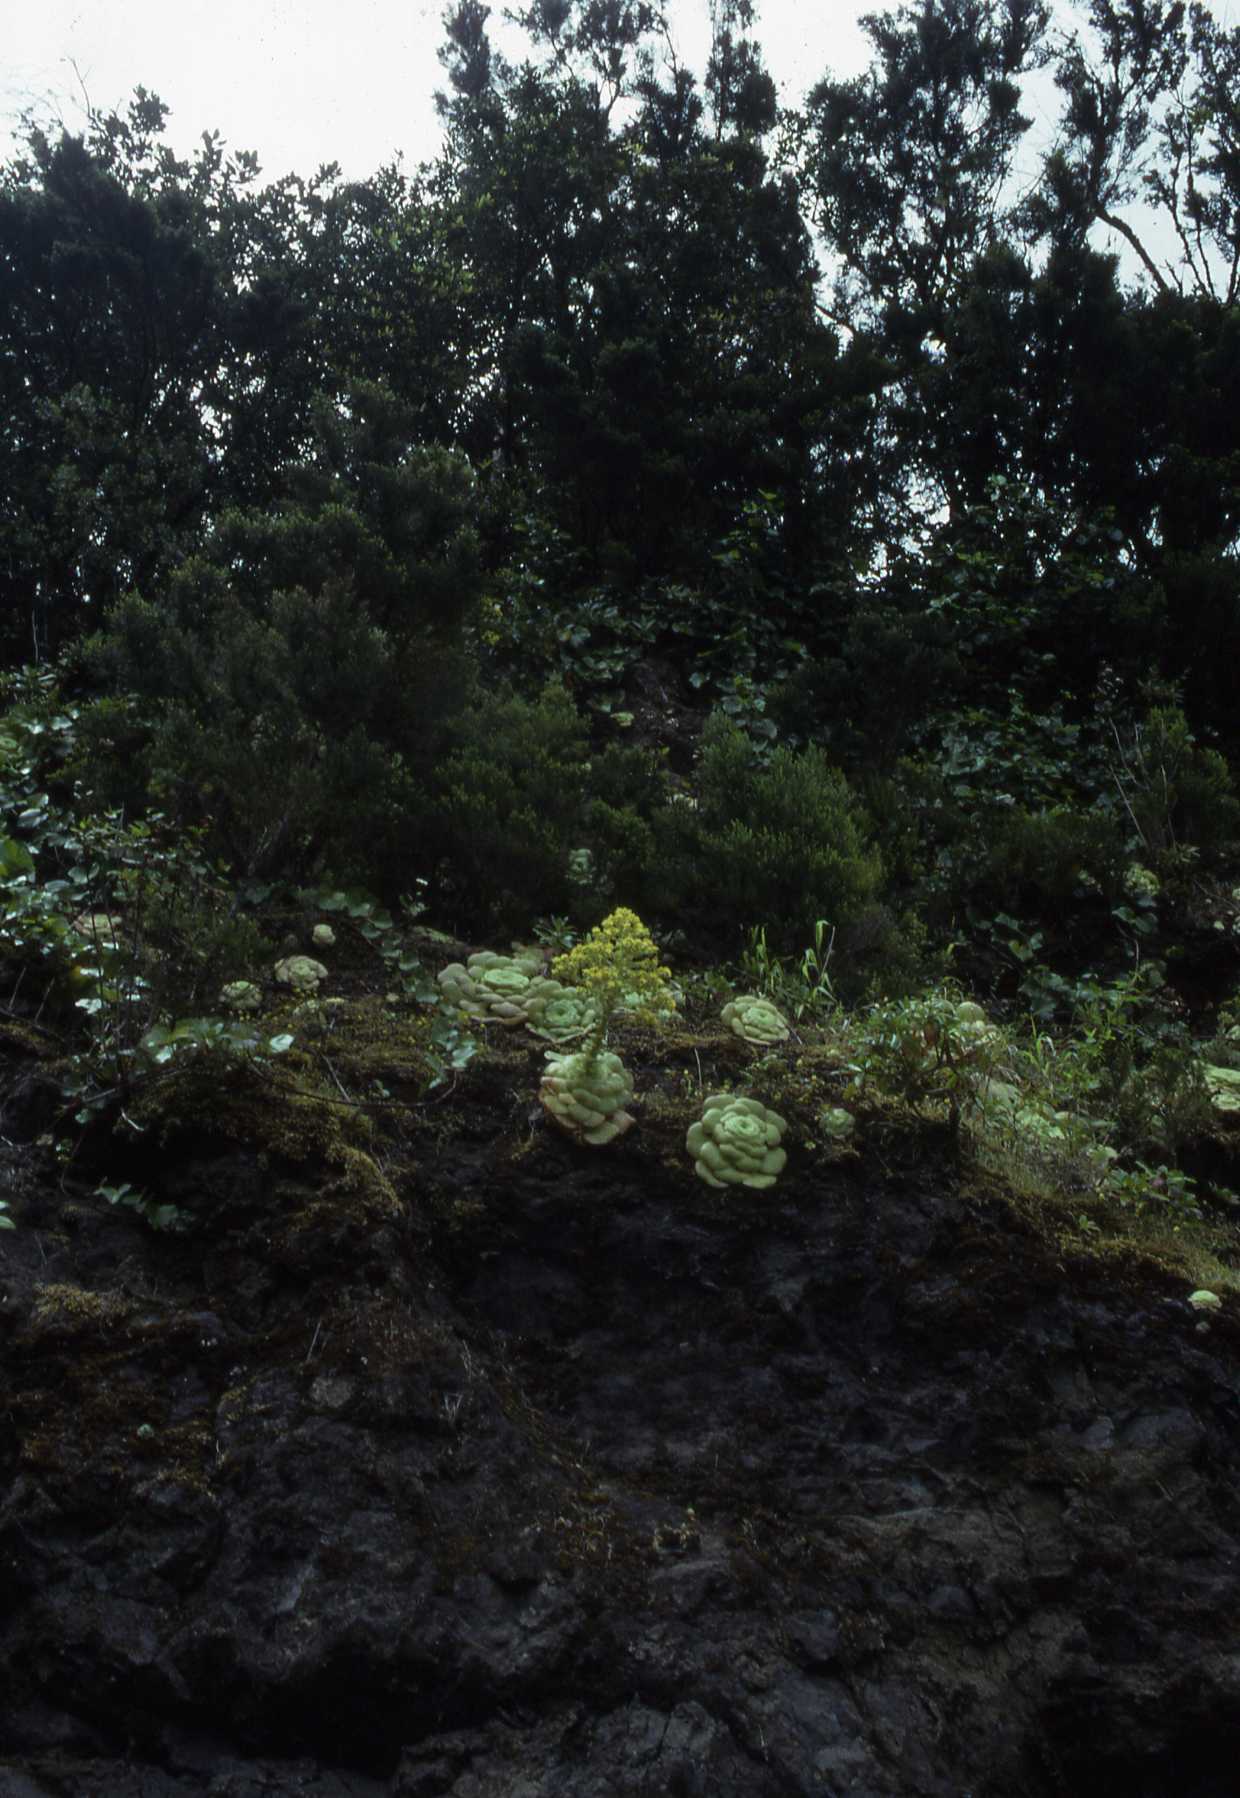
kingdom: Plantae
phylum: Tracheophyta
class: Magnoliopsida
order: Saxifragales
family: Crassulaceae
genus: Aeonium
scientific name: Aeonium canariense
